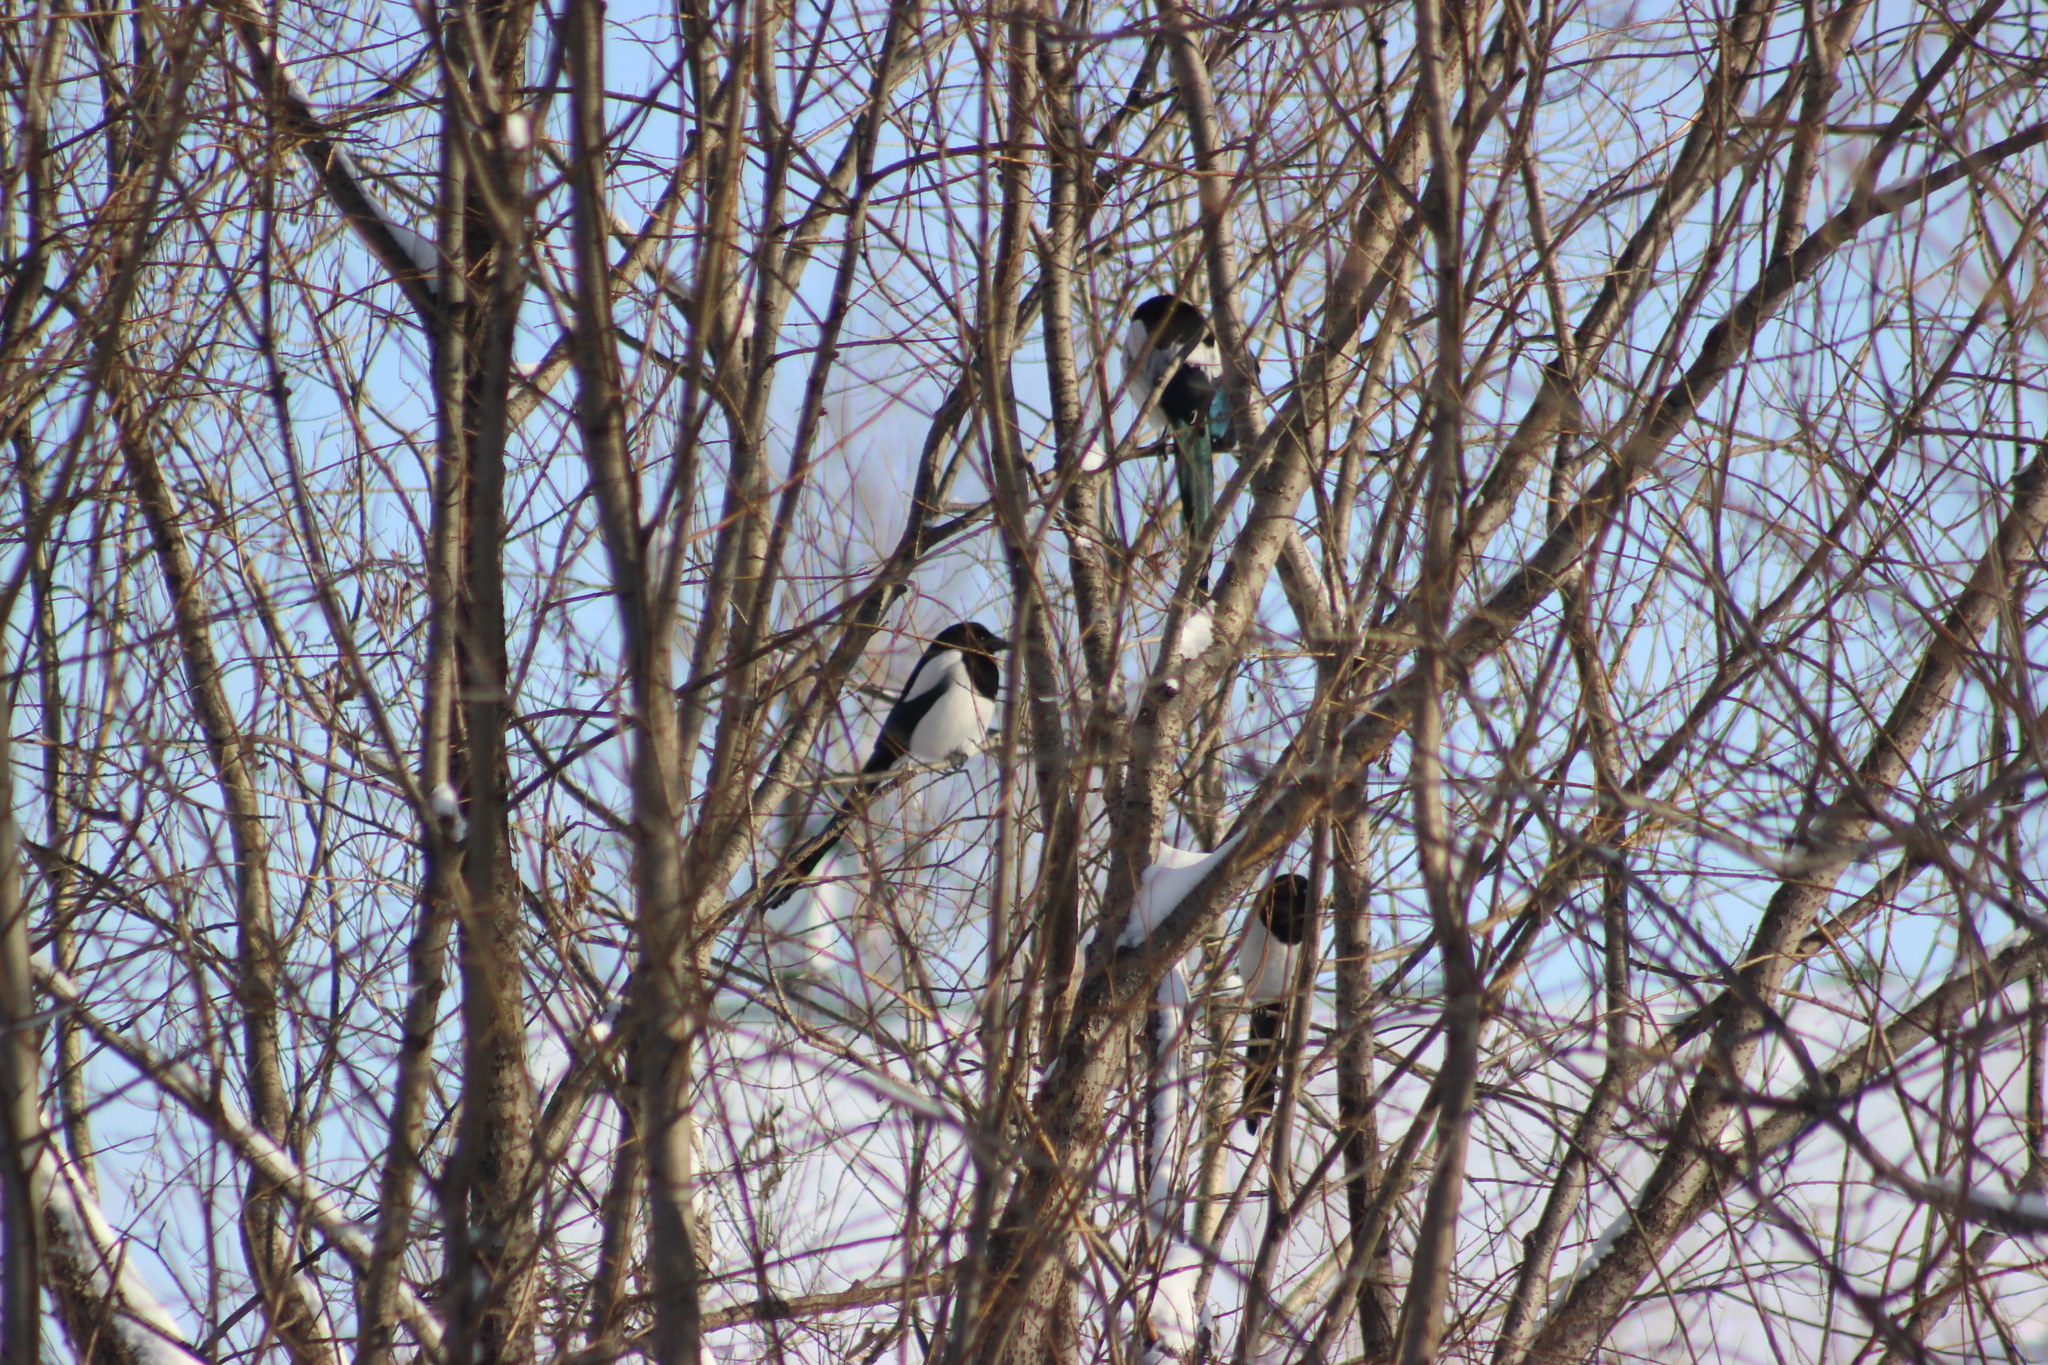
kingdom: Animalia
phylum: Chordata
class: Aves
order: Passeriformes
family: Corvidae
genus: Pica
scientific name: Pica pica
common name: Eurasian magpie
